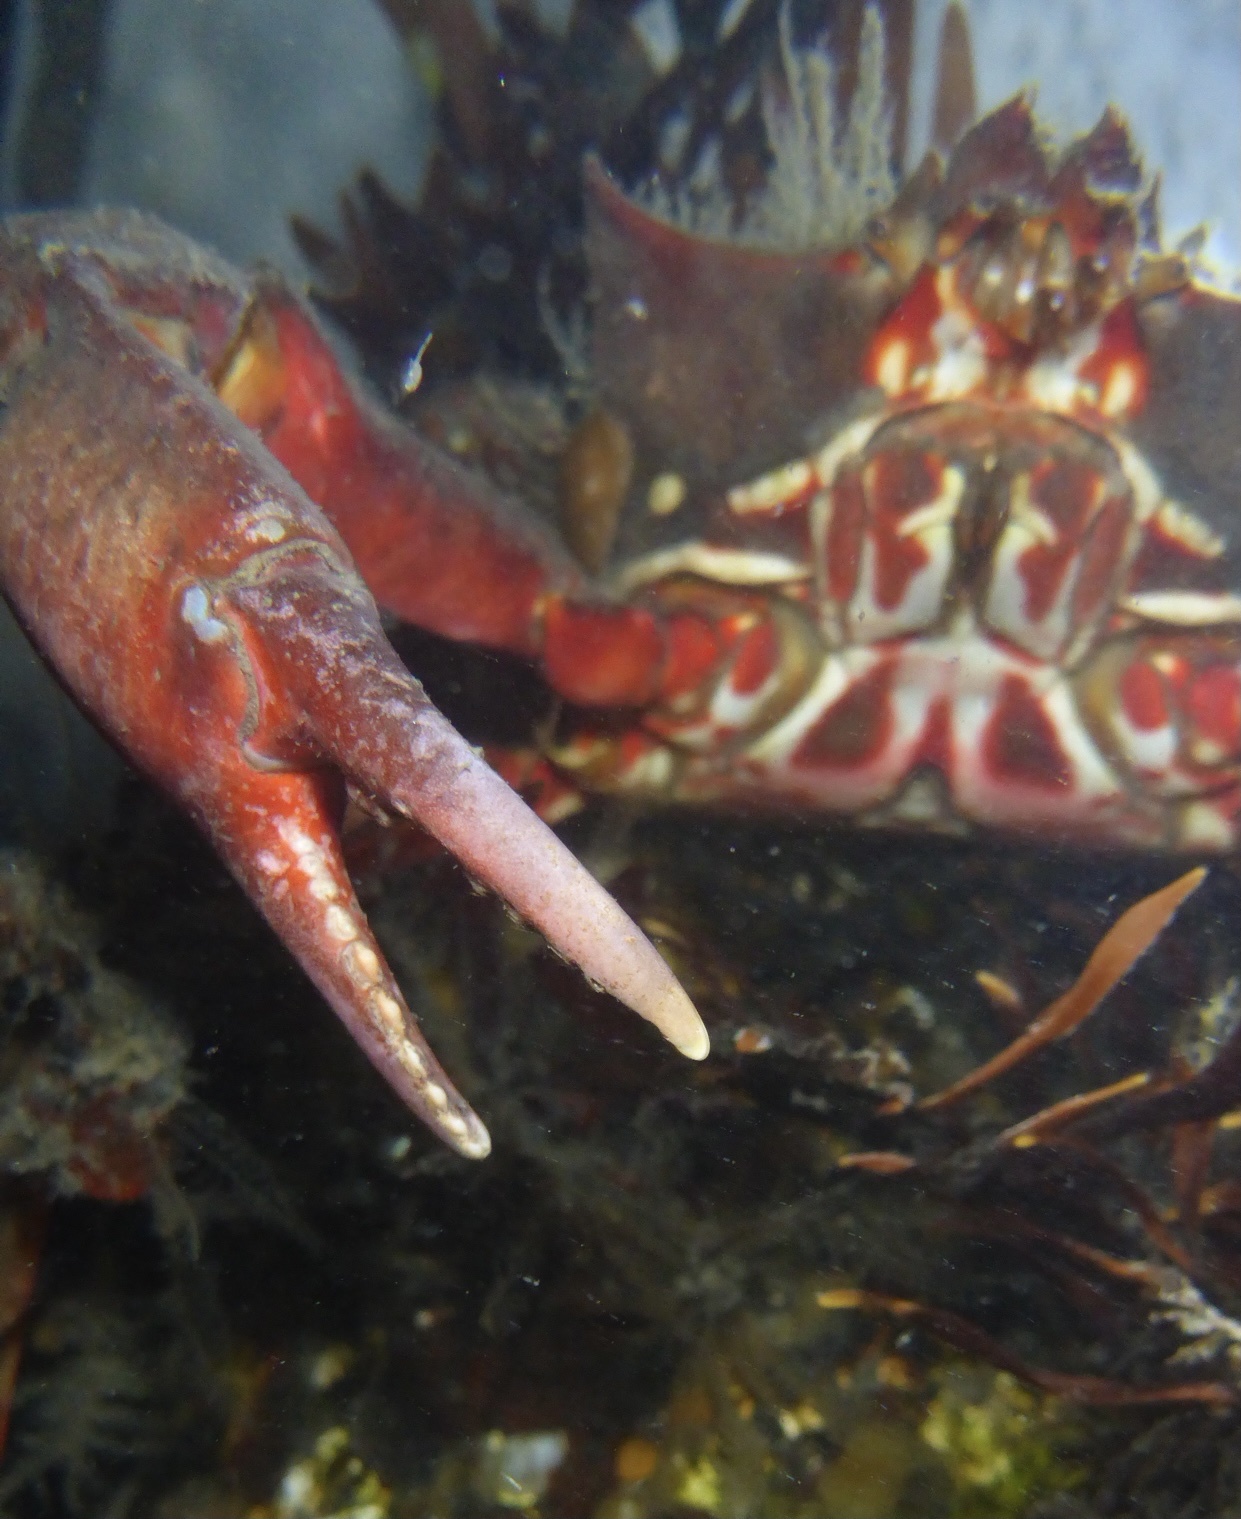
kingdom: Animalia
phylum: Arthropoda
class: Malacostraca
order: Decapoda
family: Epialtidae
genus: Pugettia
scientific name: Pugettia producta
